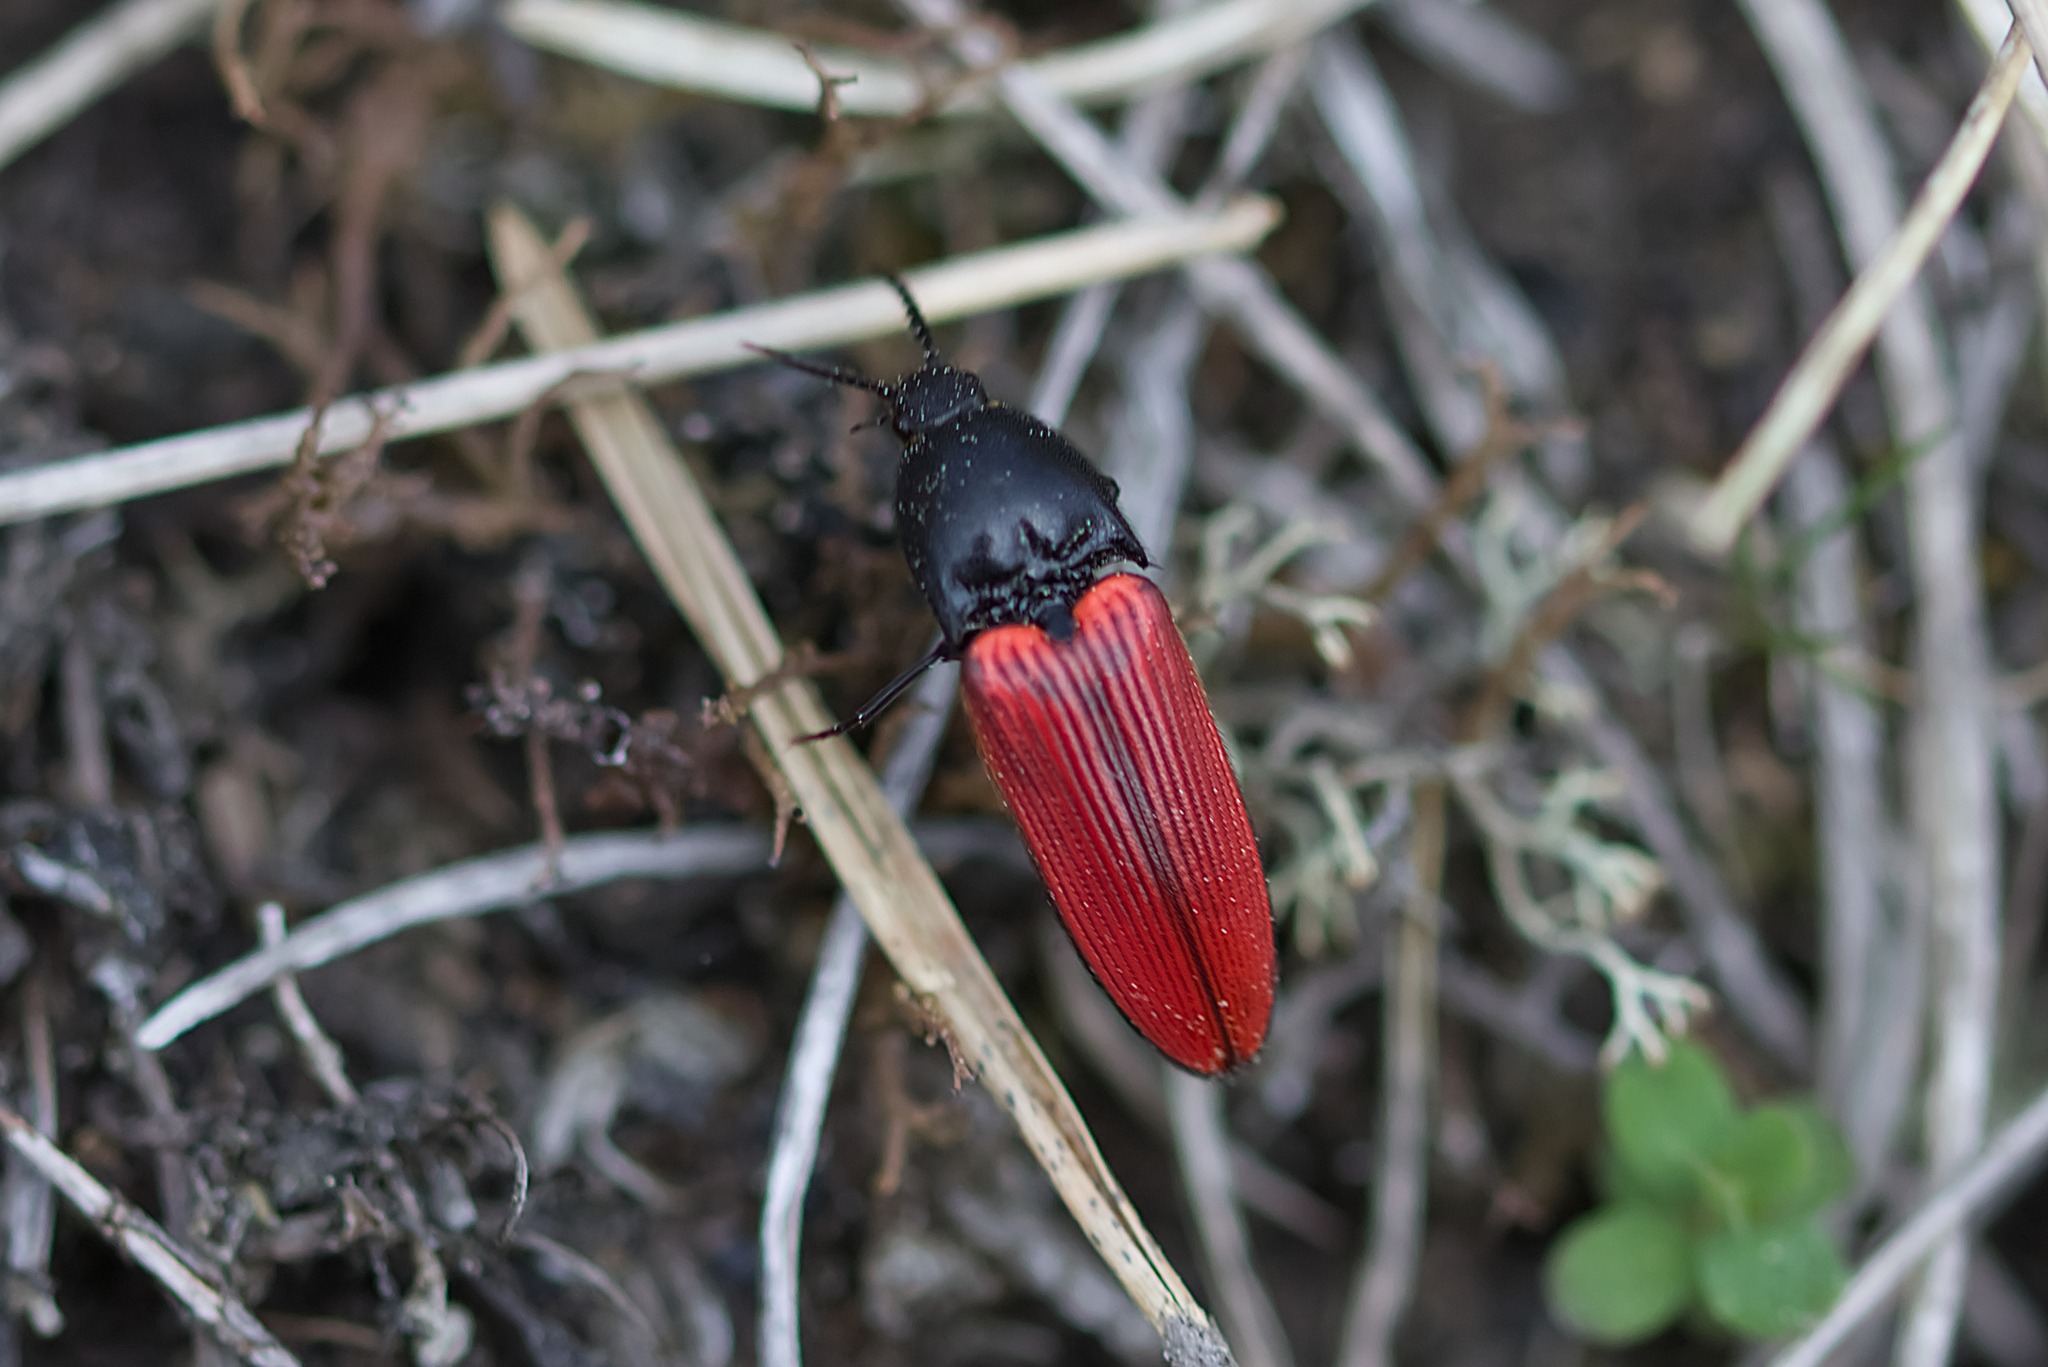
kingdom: Animalia
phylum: Arthropoda
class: Insecta
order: Coleoptera
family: Elateridae
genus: Ampedus
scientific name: Ampedus sanguineus
